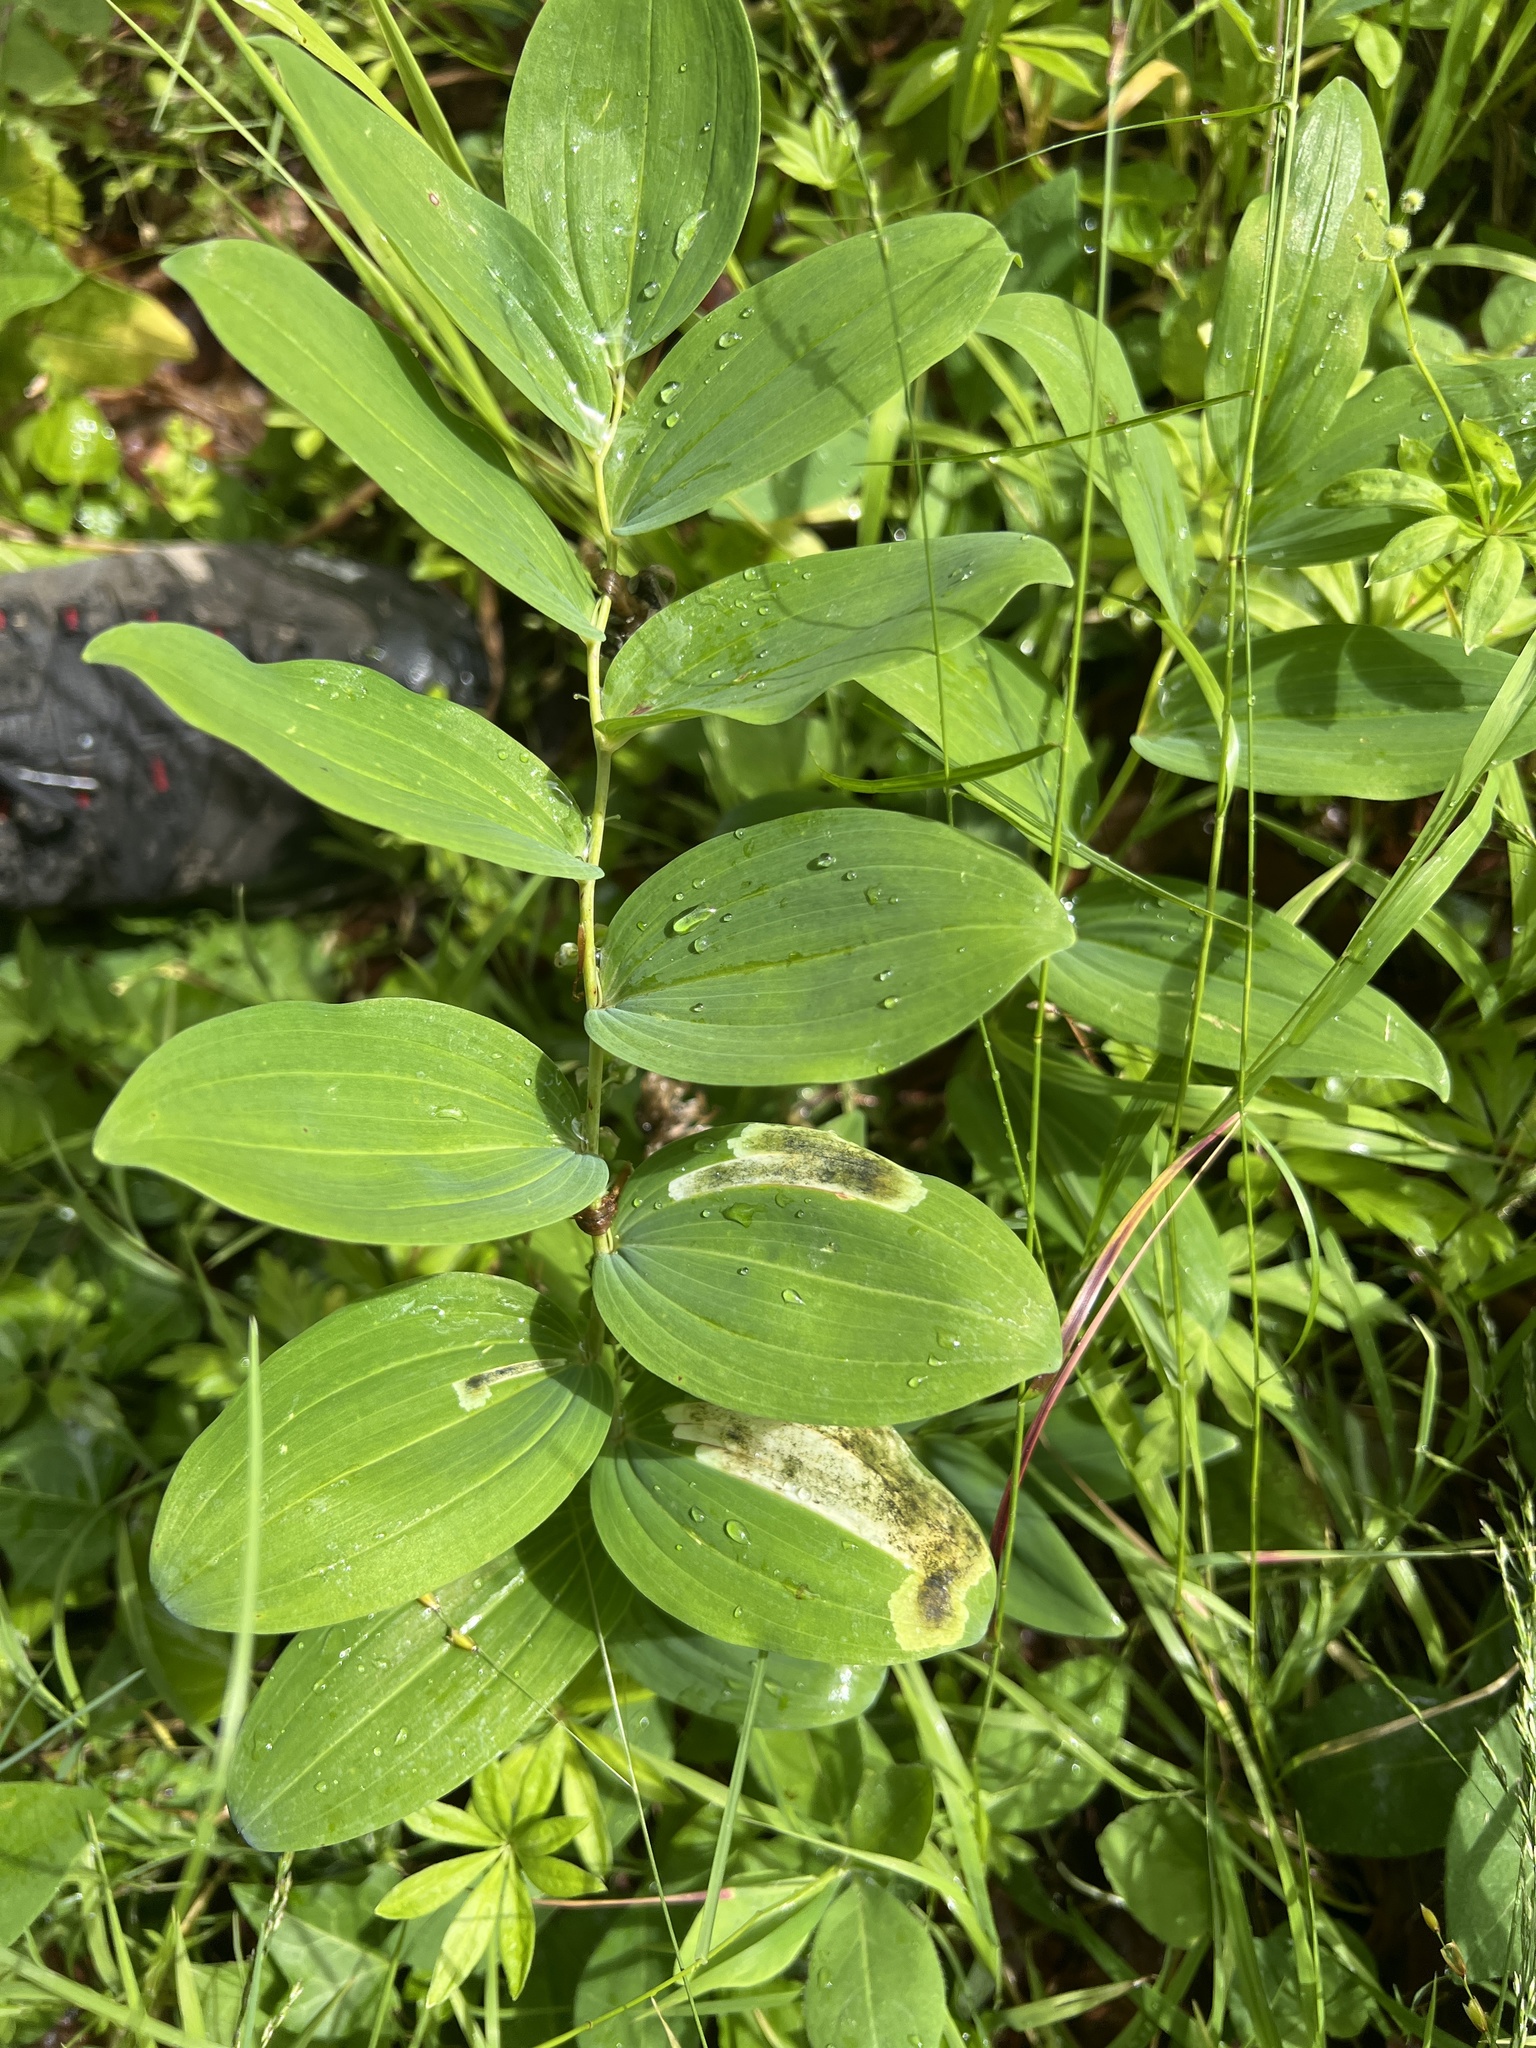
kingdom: Plantae
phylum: Tracheophyta
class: Liliopsida
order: Asparagales
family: Asparagaceae
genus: Polygonatum
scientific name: Polygonatum multiflorum
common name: Solomon's-seal
